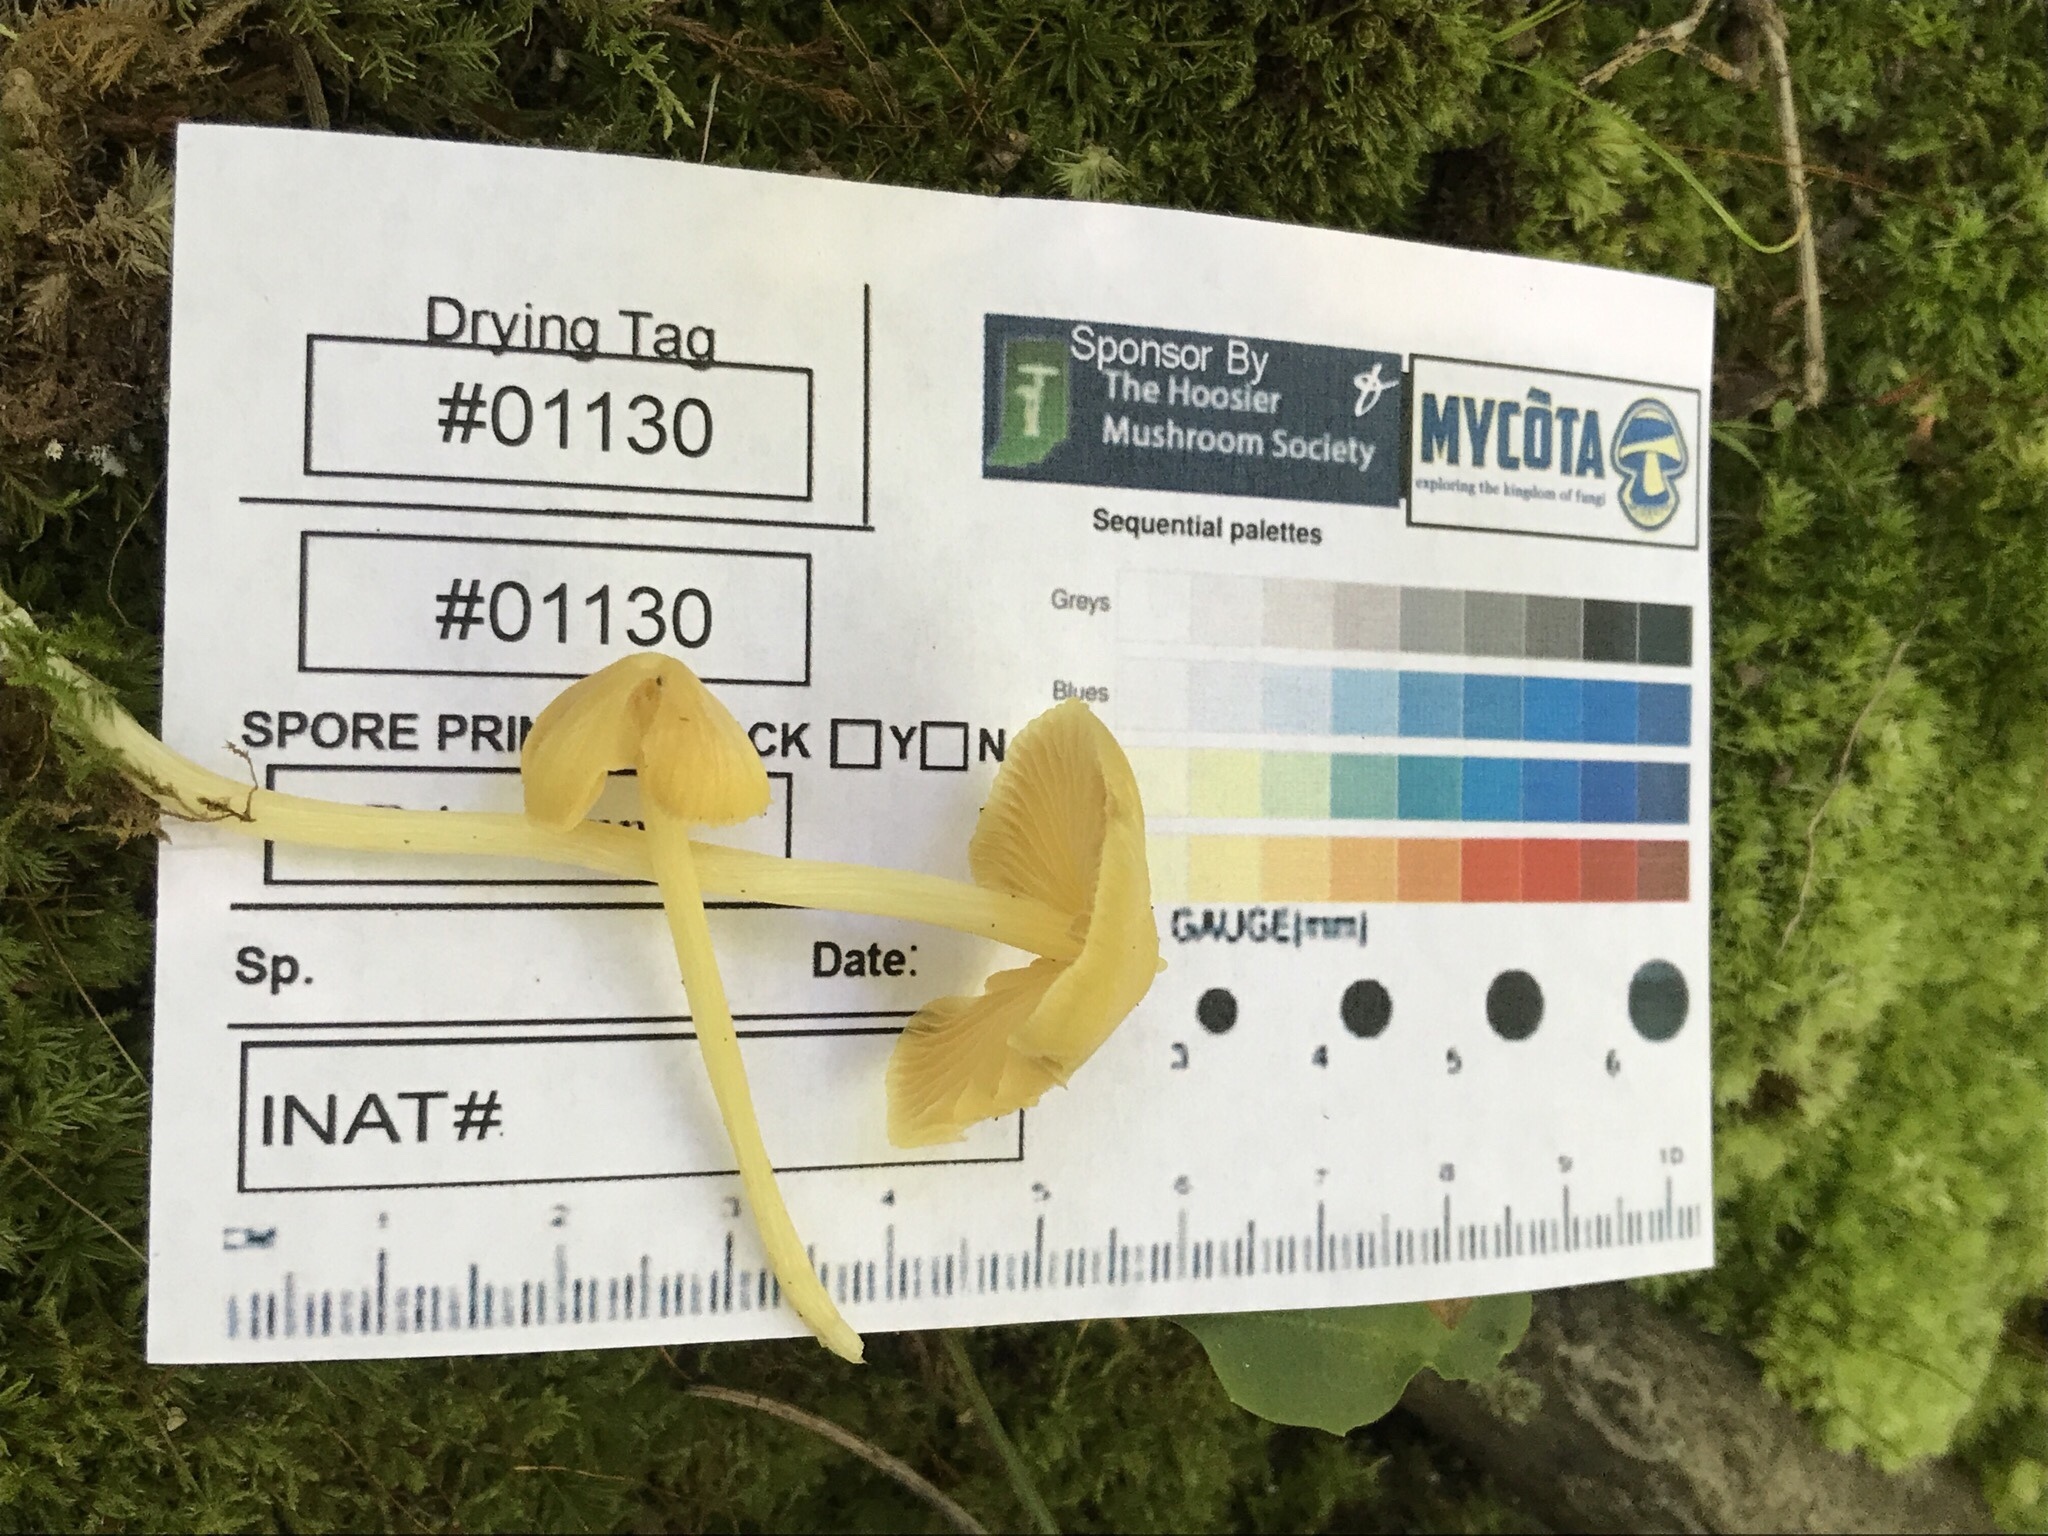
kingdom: Fungi
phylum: Basidiomycota
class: Agaricomycetes
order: Agaricales
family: Entolomataceae
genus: Entoloma
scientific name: Entoloma murrayi
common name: Yellow unicorn entoloma
